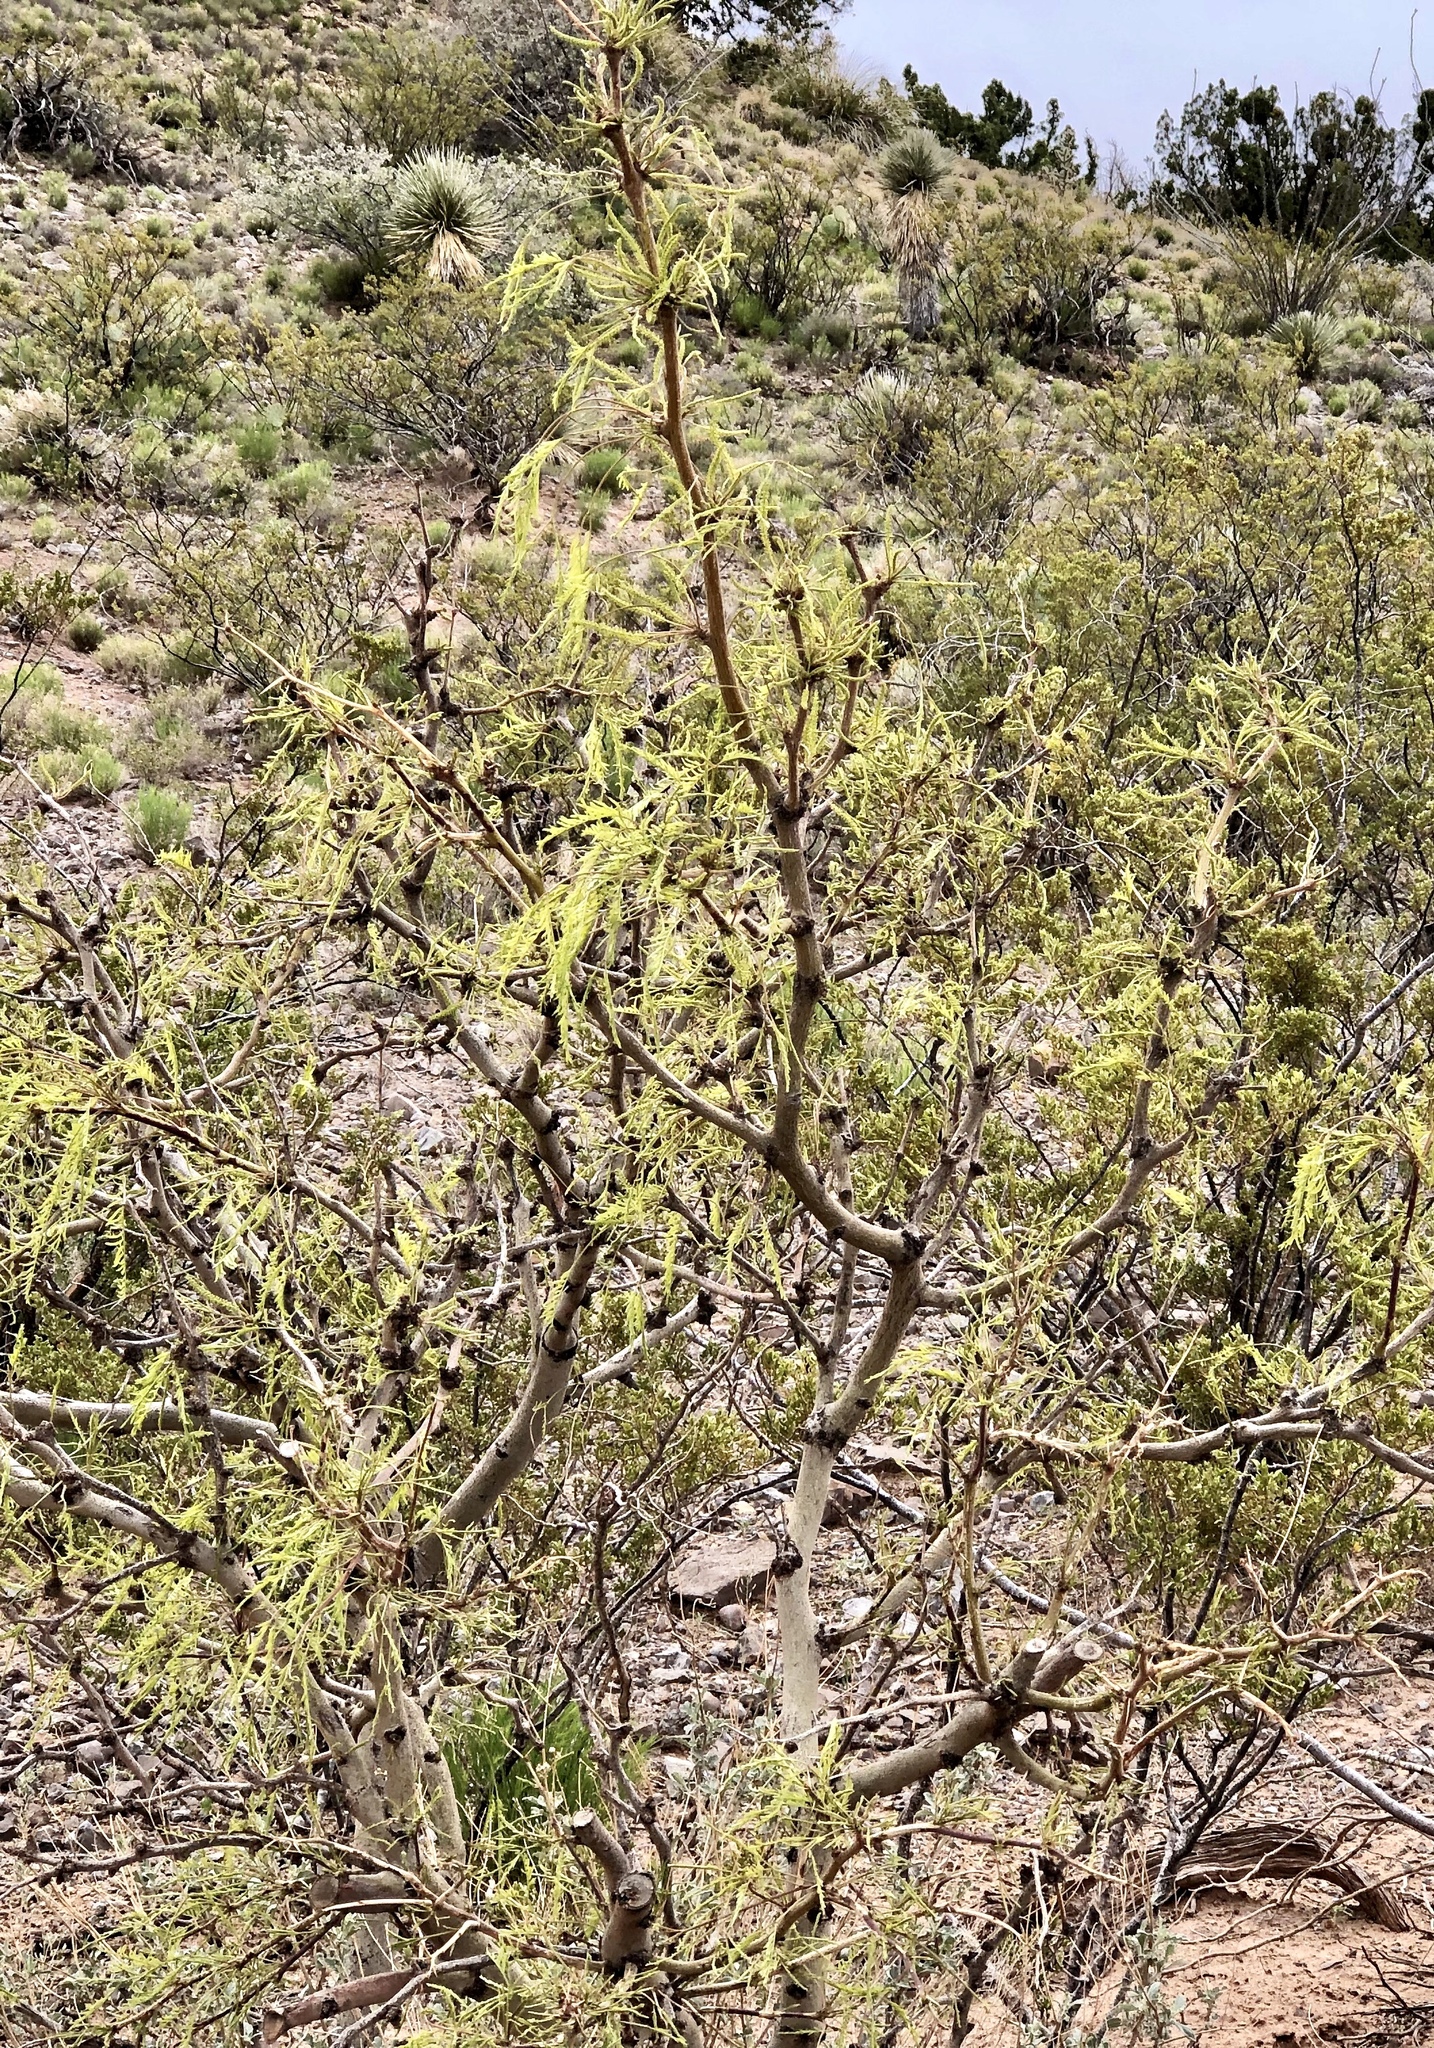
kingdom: Plantae
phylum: Tracheophyta
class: Magnoliopsida
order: Fabales
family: Fabaceae
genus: Prosopis
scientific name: Prosopis glandulosa
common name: Honey mesquite
